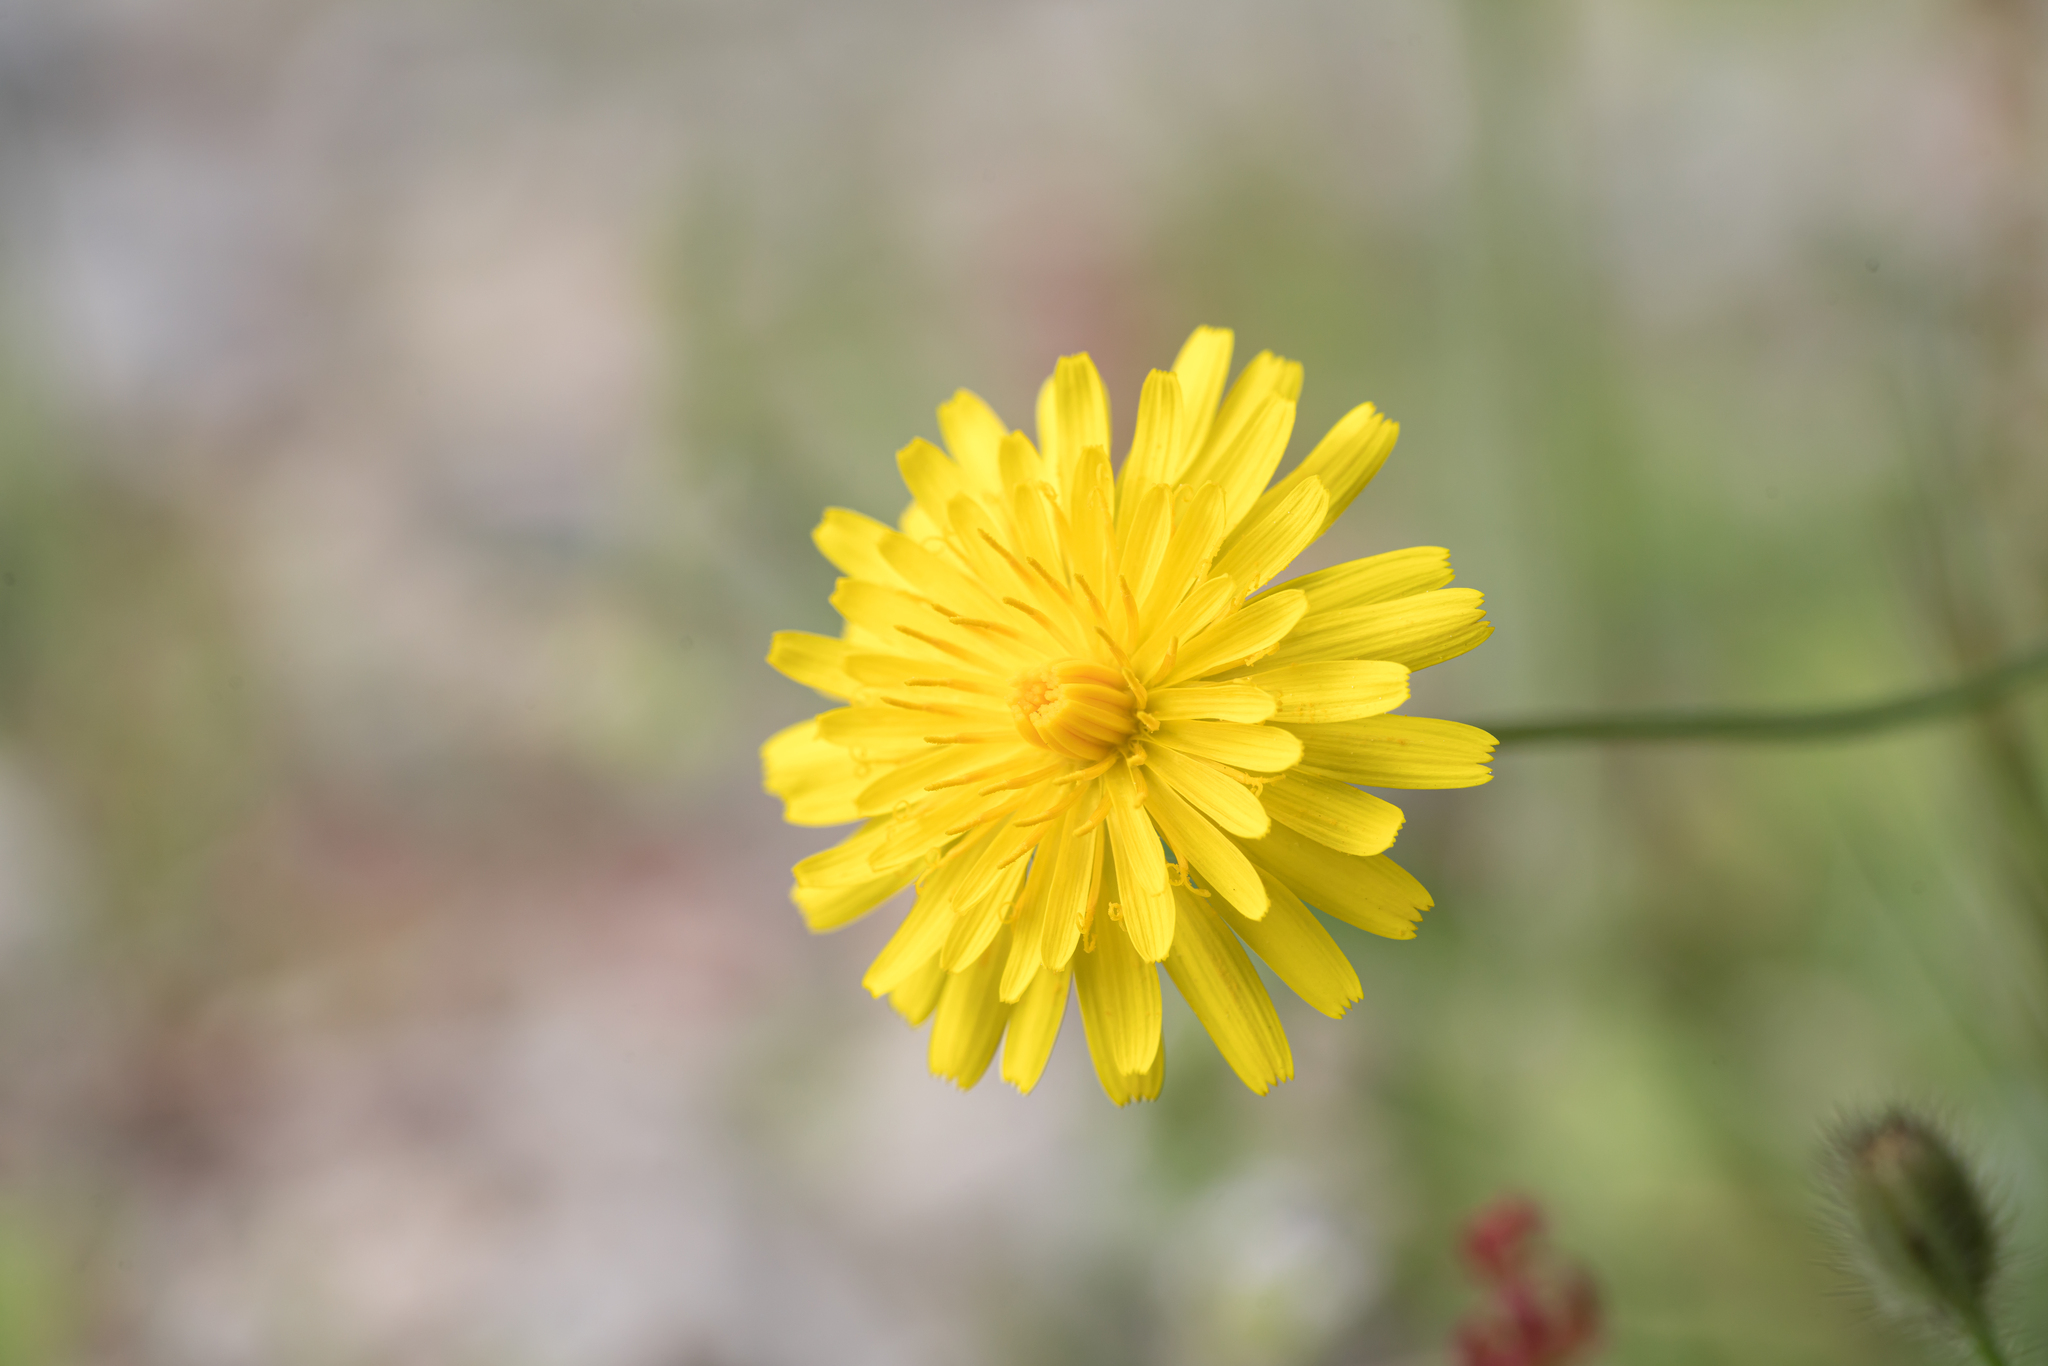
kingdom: Plantae
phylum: Tracheophyta
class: Magnoliopsida
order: Asterales
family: Asteraceae
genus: Crepis
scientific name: Crepis commutata
